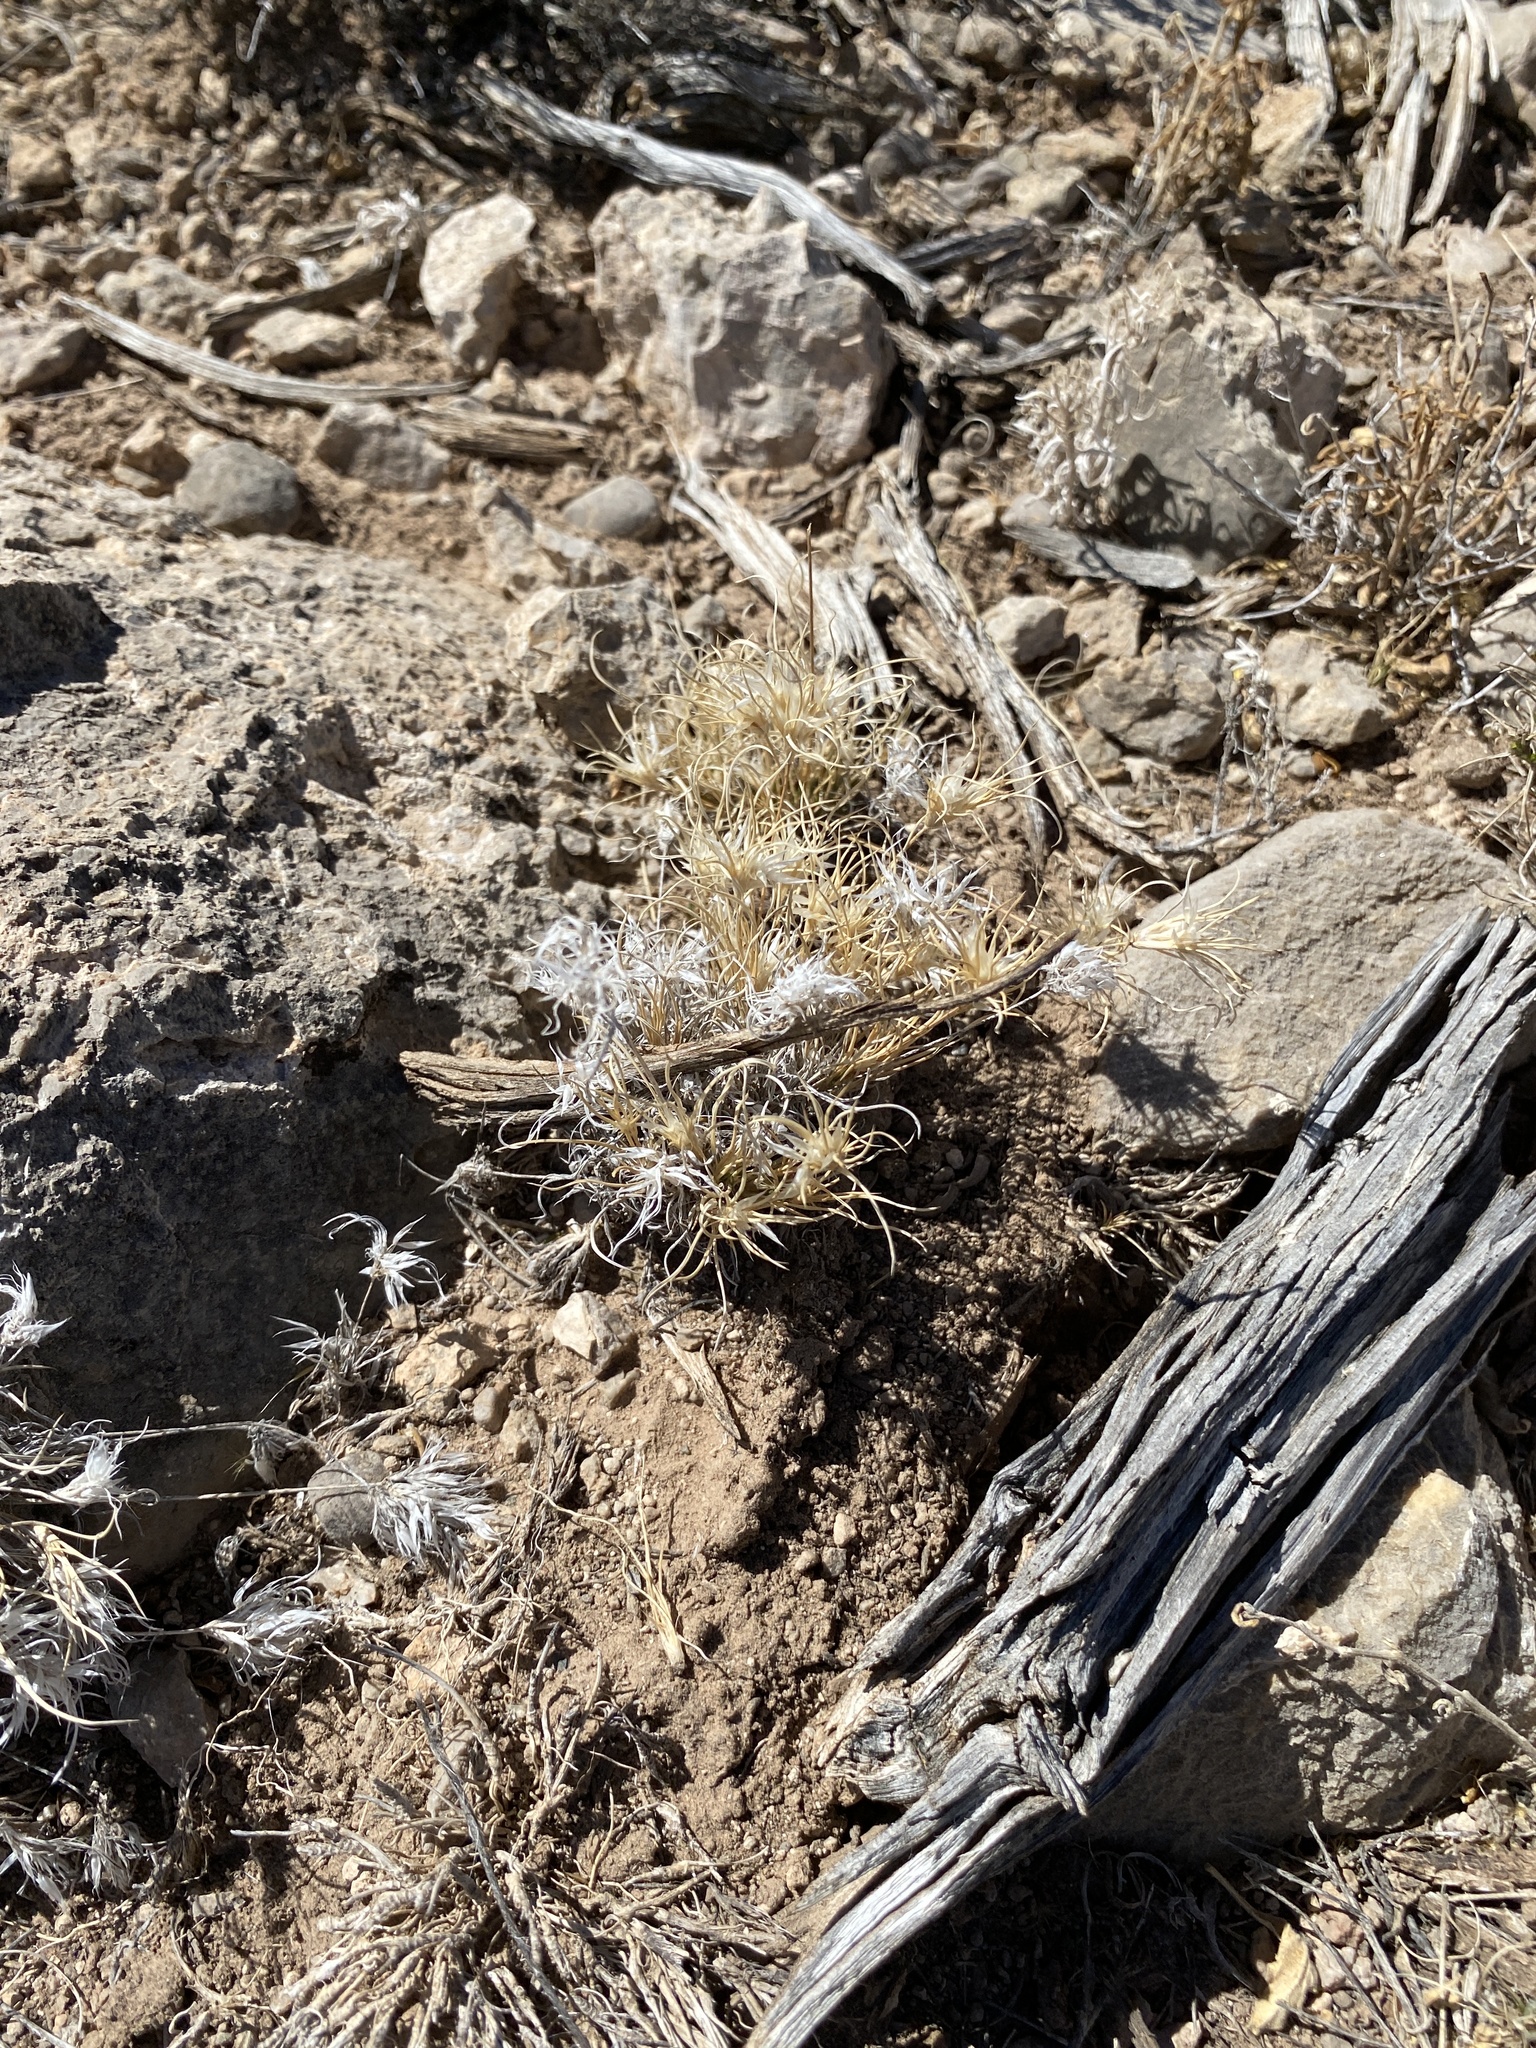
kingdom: Plantae
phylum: Tracheophyta
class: Liliopsida
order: Poales
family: Poaceae
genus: Dasyochloa
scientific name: Dasyochloa pulchella
